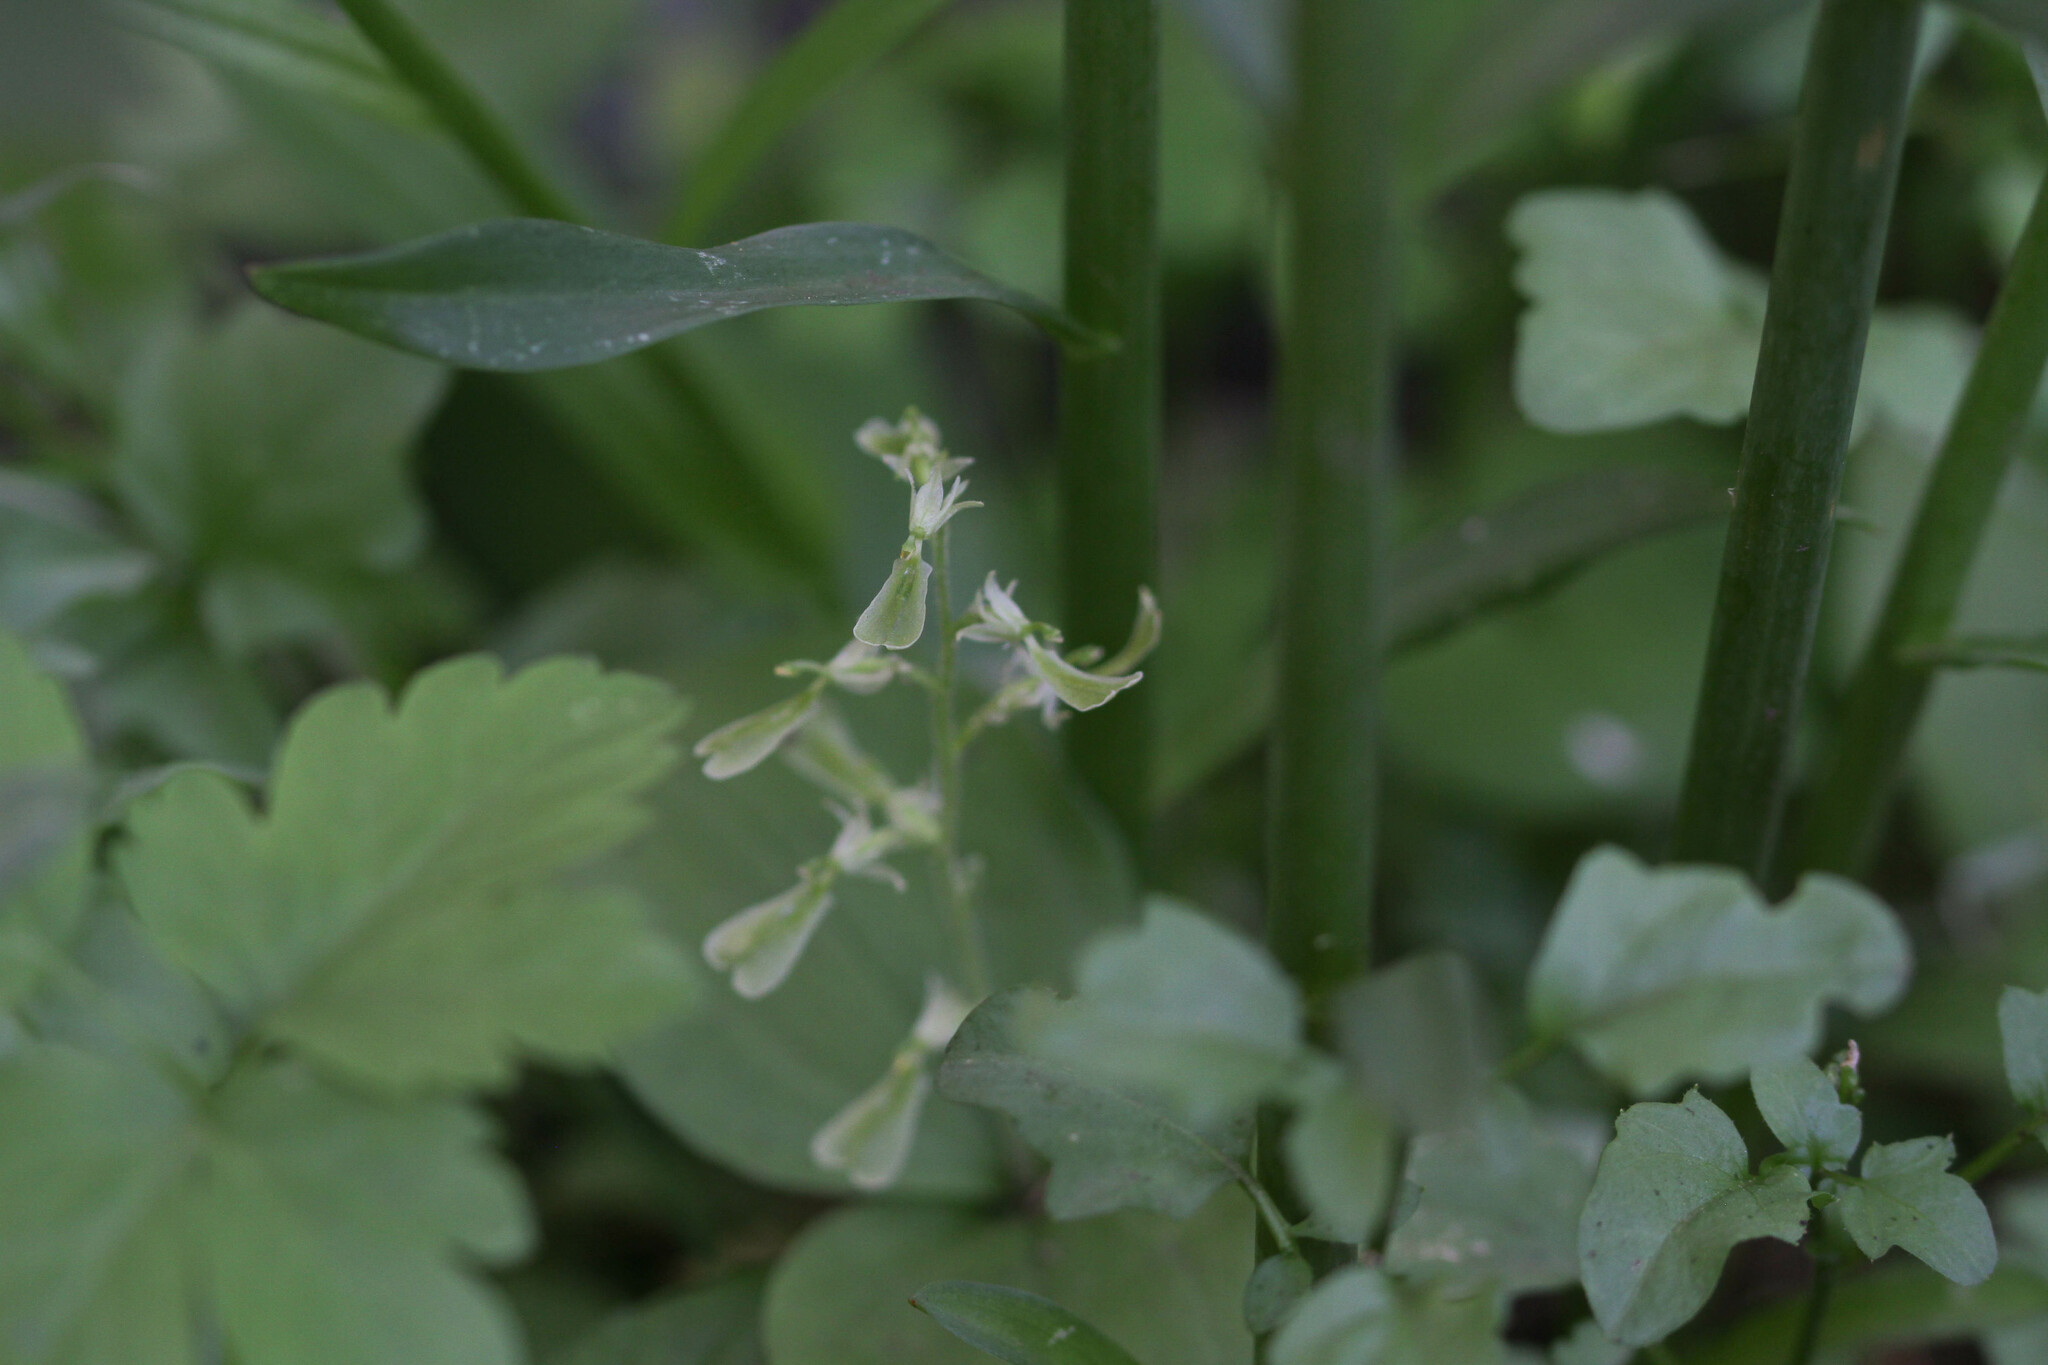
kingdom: Plantae
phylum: Tracheophyta
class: Liliopsida
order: Asparagales
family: Orchidaceae
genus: Neottia
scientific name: Neottia convallarioides
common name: Broadleaf twayblade
